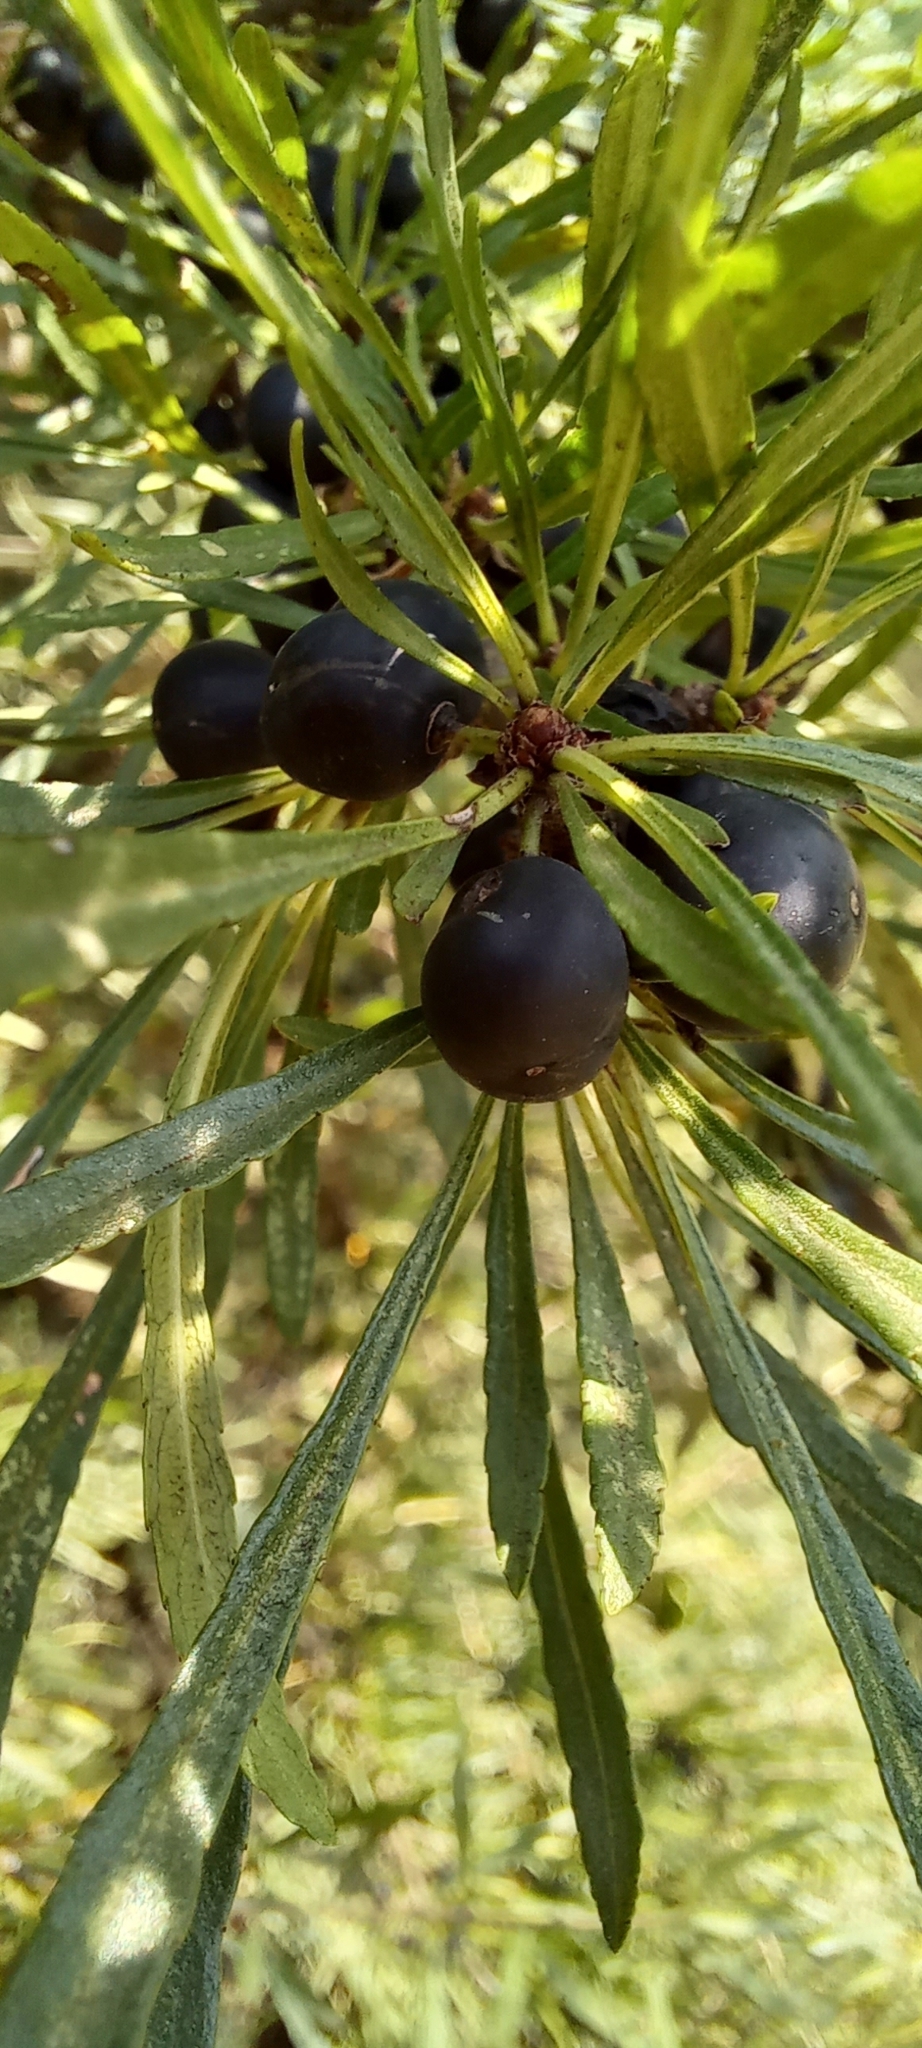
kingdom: Plantae
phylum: Tracheophyta
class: Magnoliopsida
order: Rosales
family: Rhamnaceae
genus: Rhamnus
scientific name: Rhamnus erythroxyloides
